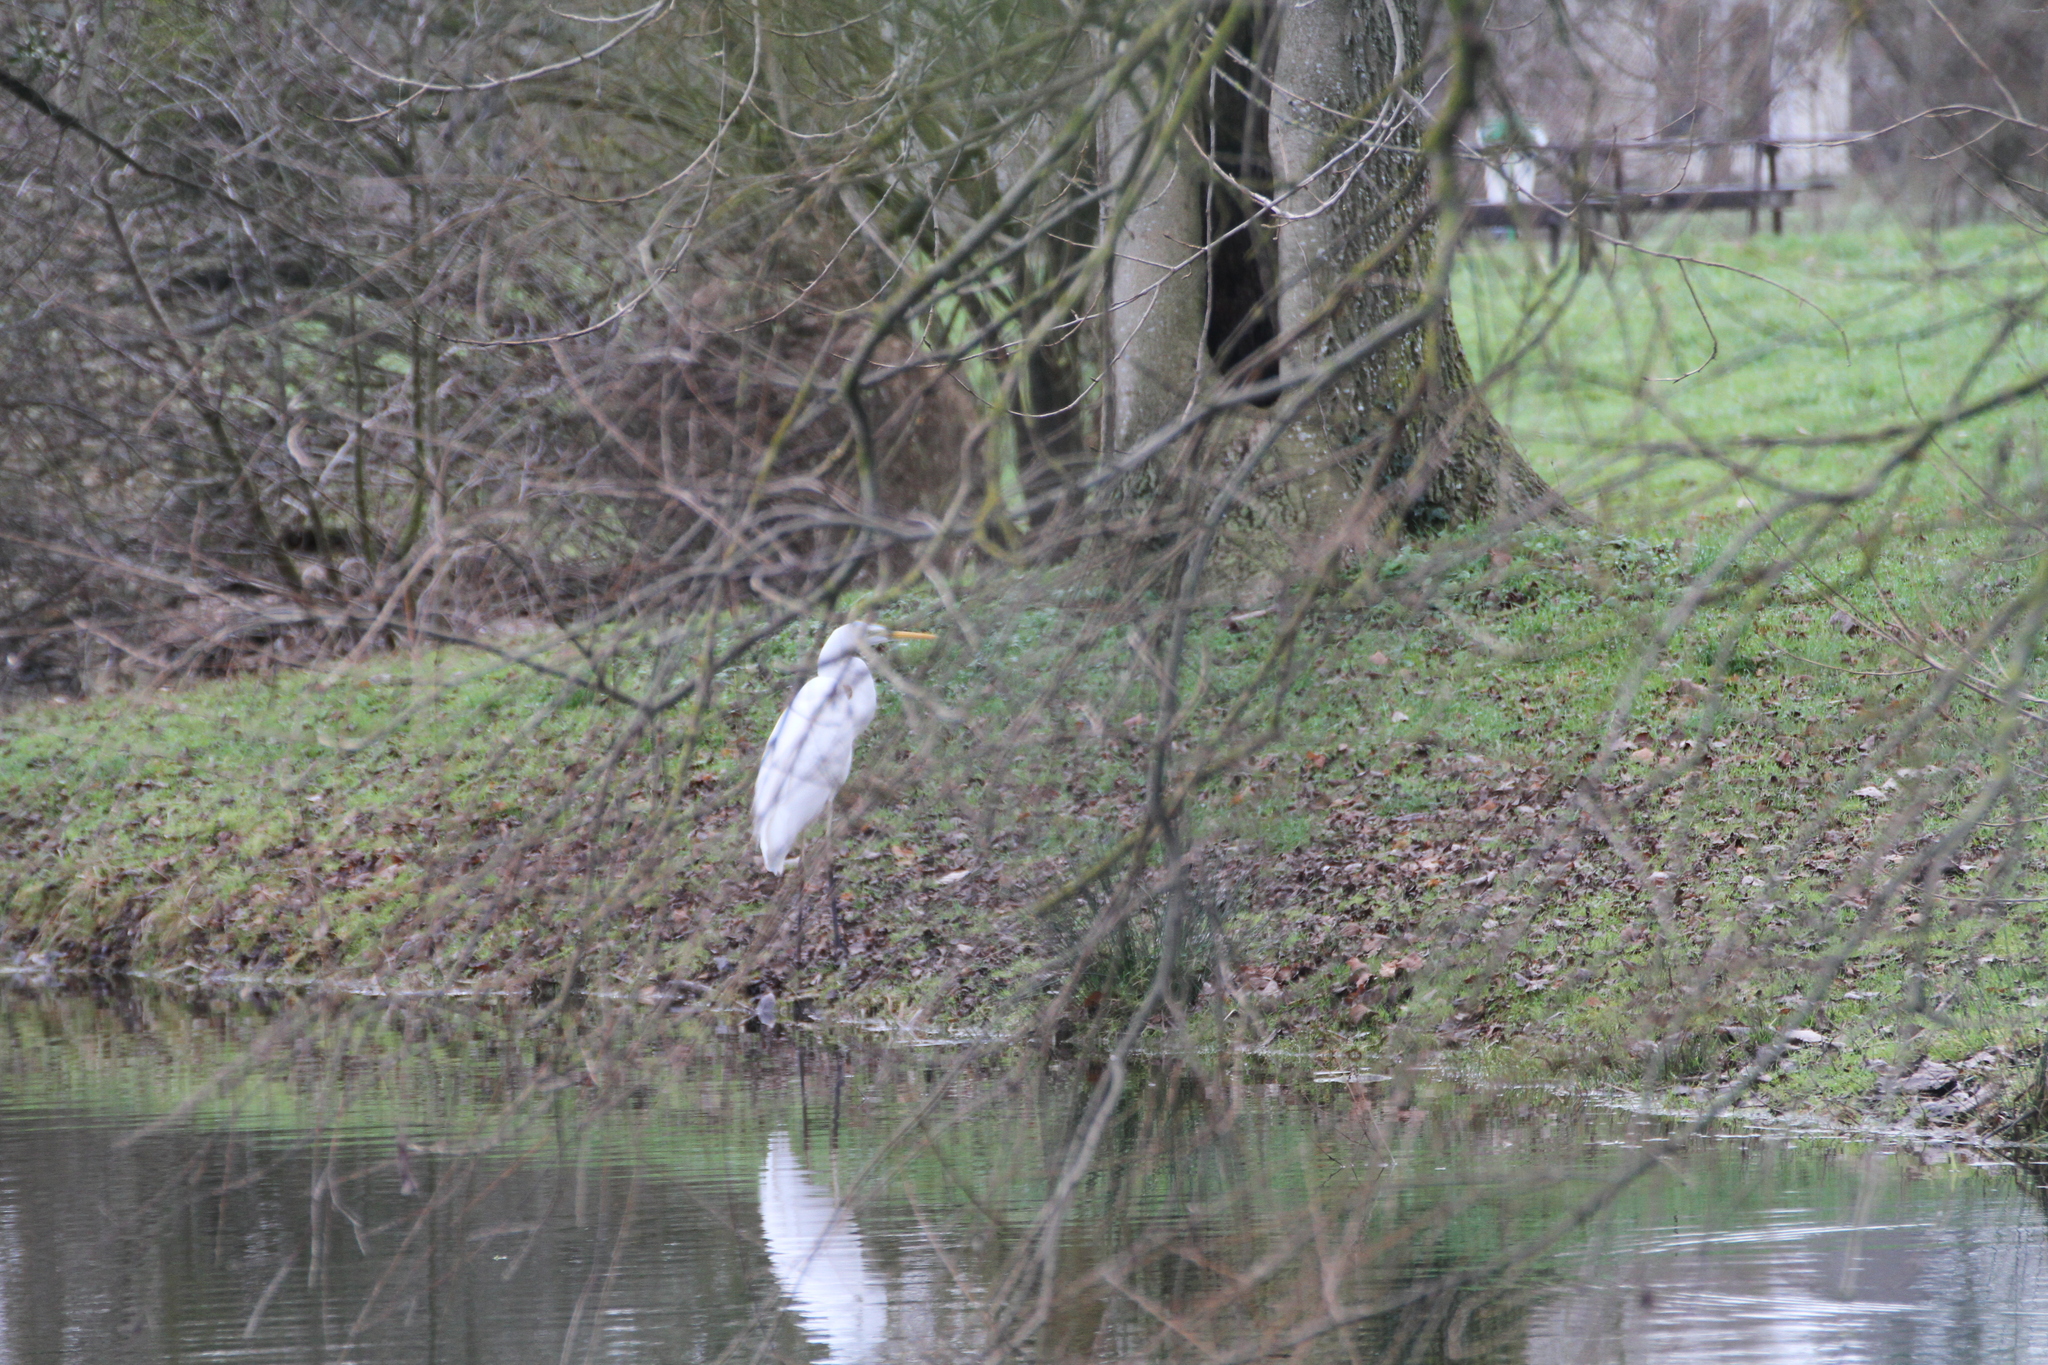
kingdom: Animalia
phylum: Chordata
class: Aves
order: Pelecaniformes
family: Ardeidae
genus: Ardea
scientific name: Ardea alba
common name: Great egret
